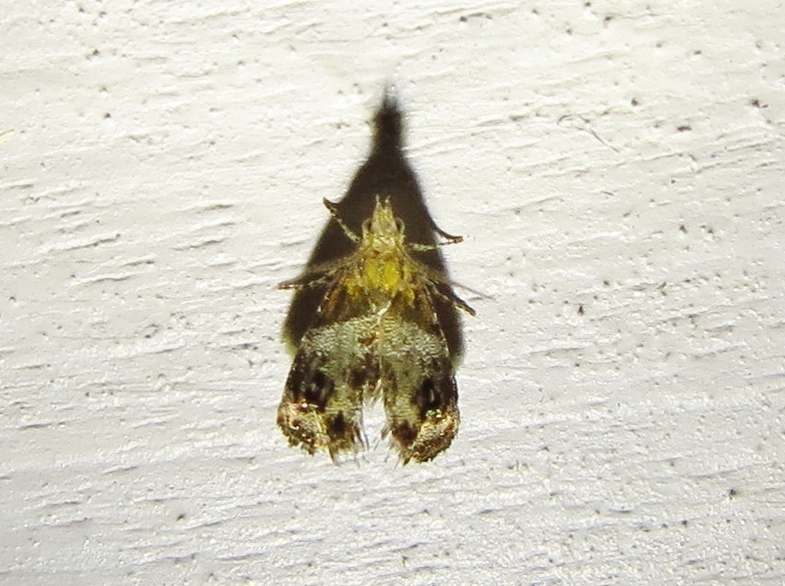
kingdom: Animalia
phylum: Arthropoda
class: Insecta
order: Lepidoptera
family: Choreutidae
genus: Tebenna
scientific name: Tebenna gnaphaliella
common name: Everlasting tebenna moth
